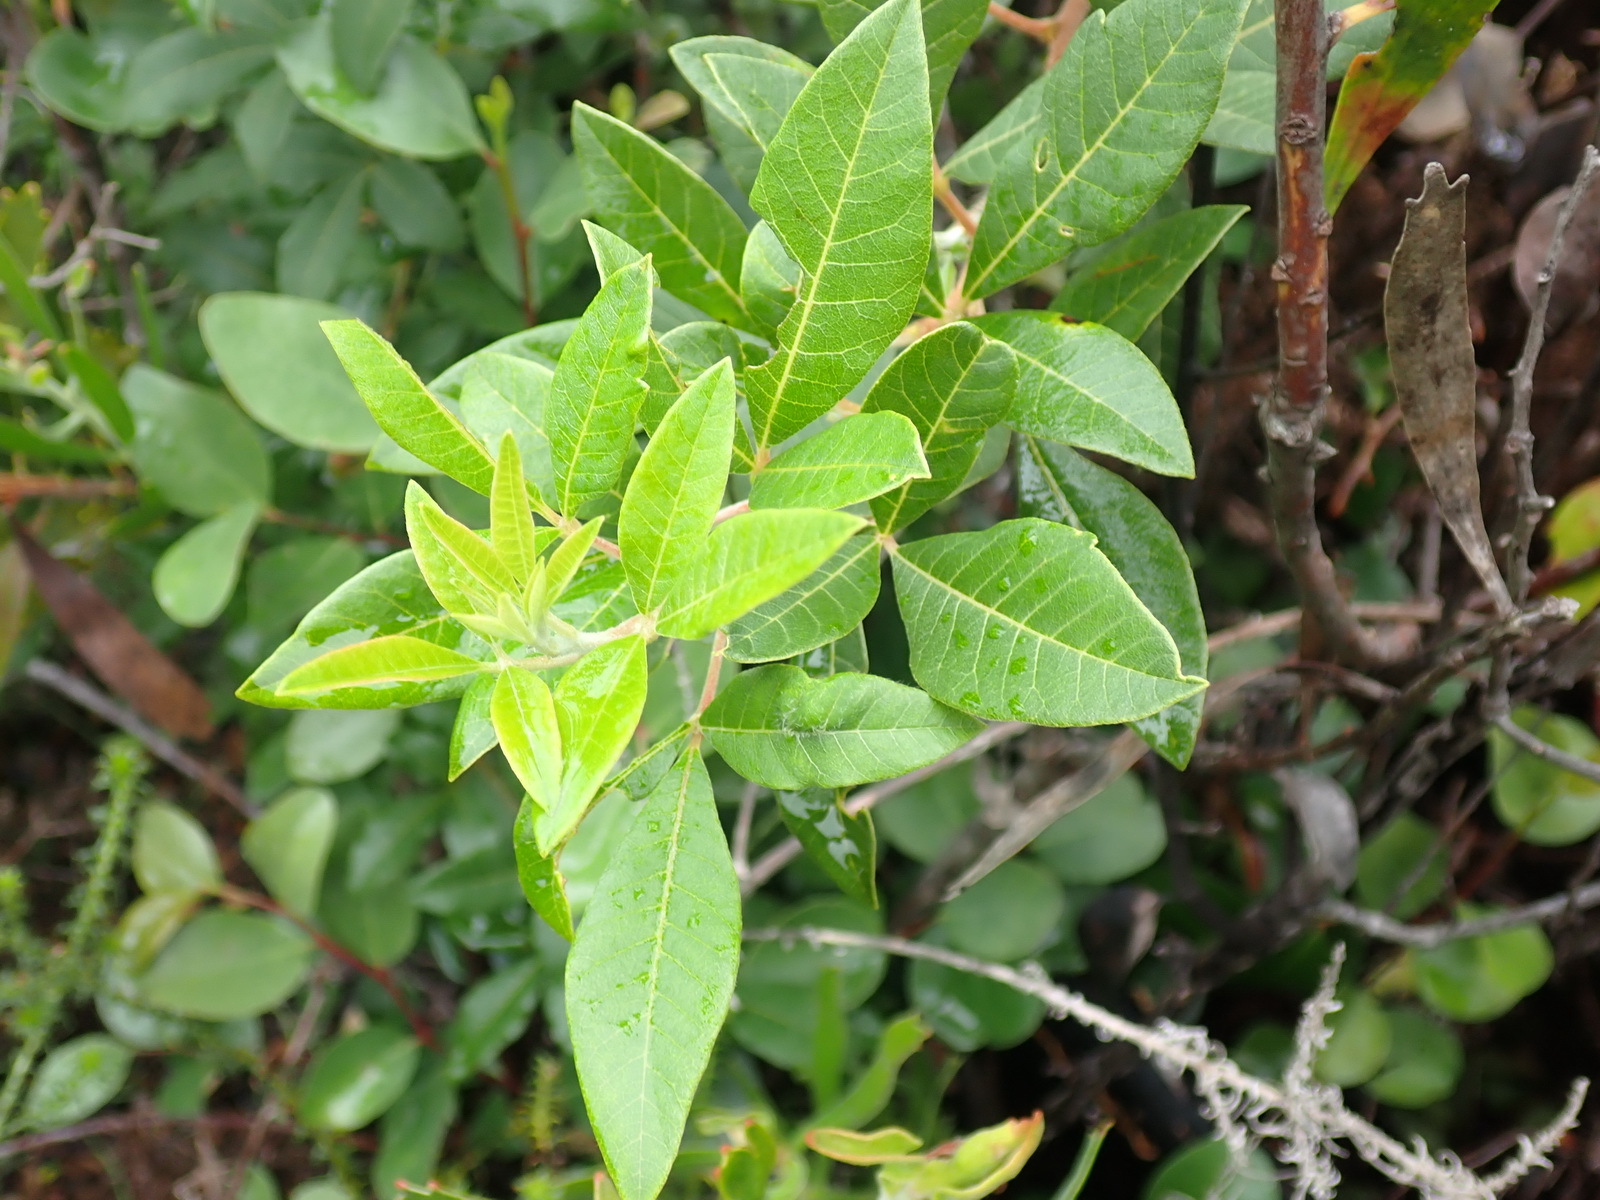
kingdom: Plantae
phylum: Tracheophyta
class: Magnoliopsida
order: Sapindales
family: Anacardiaceae
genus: Searsia
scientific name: Searsia tomentosa
